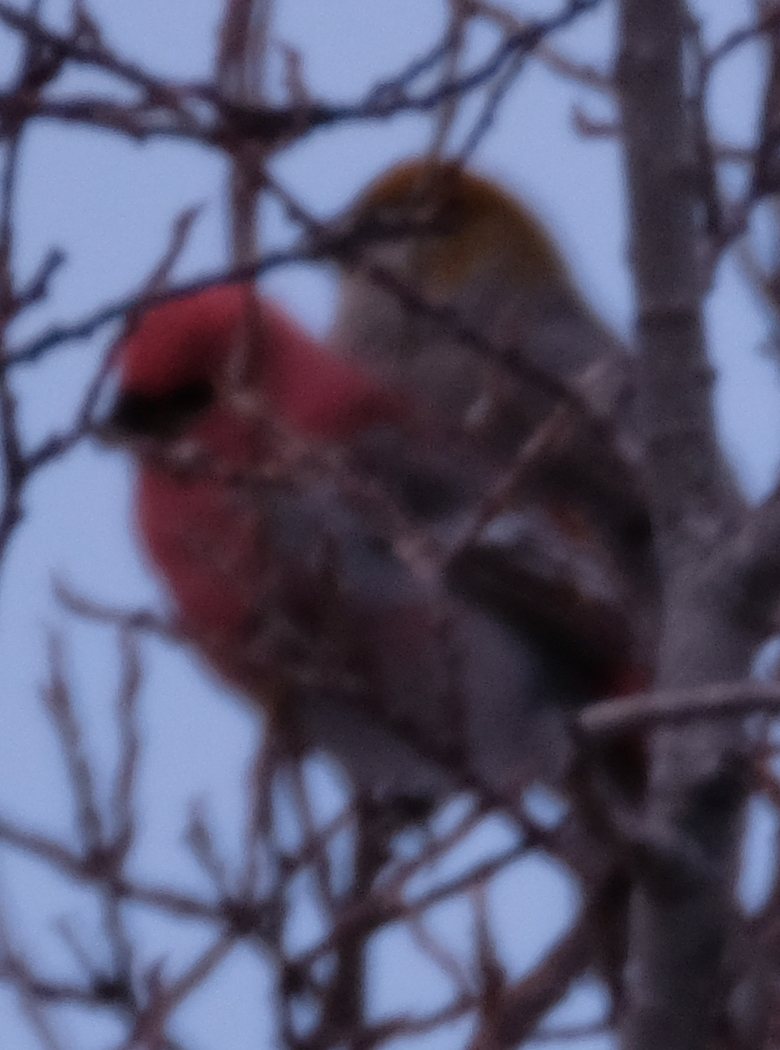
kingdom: Animalia
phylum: Chordata
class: Aves
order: Passeriformes
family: Fringillidae
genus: Pinicola
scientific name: Pinicola enucleator
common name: Pine grosbeak
